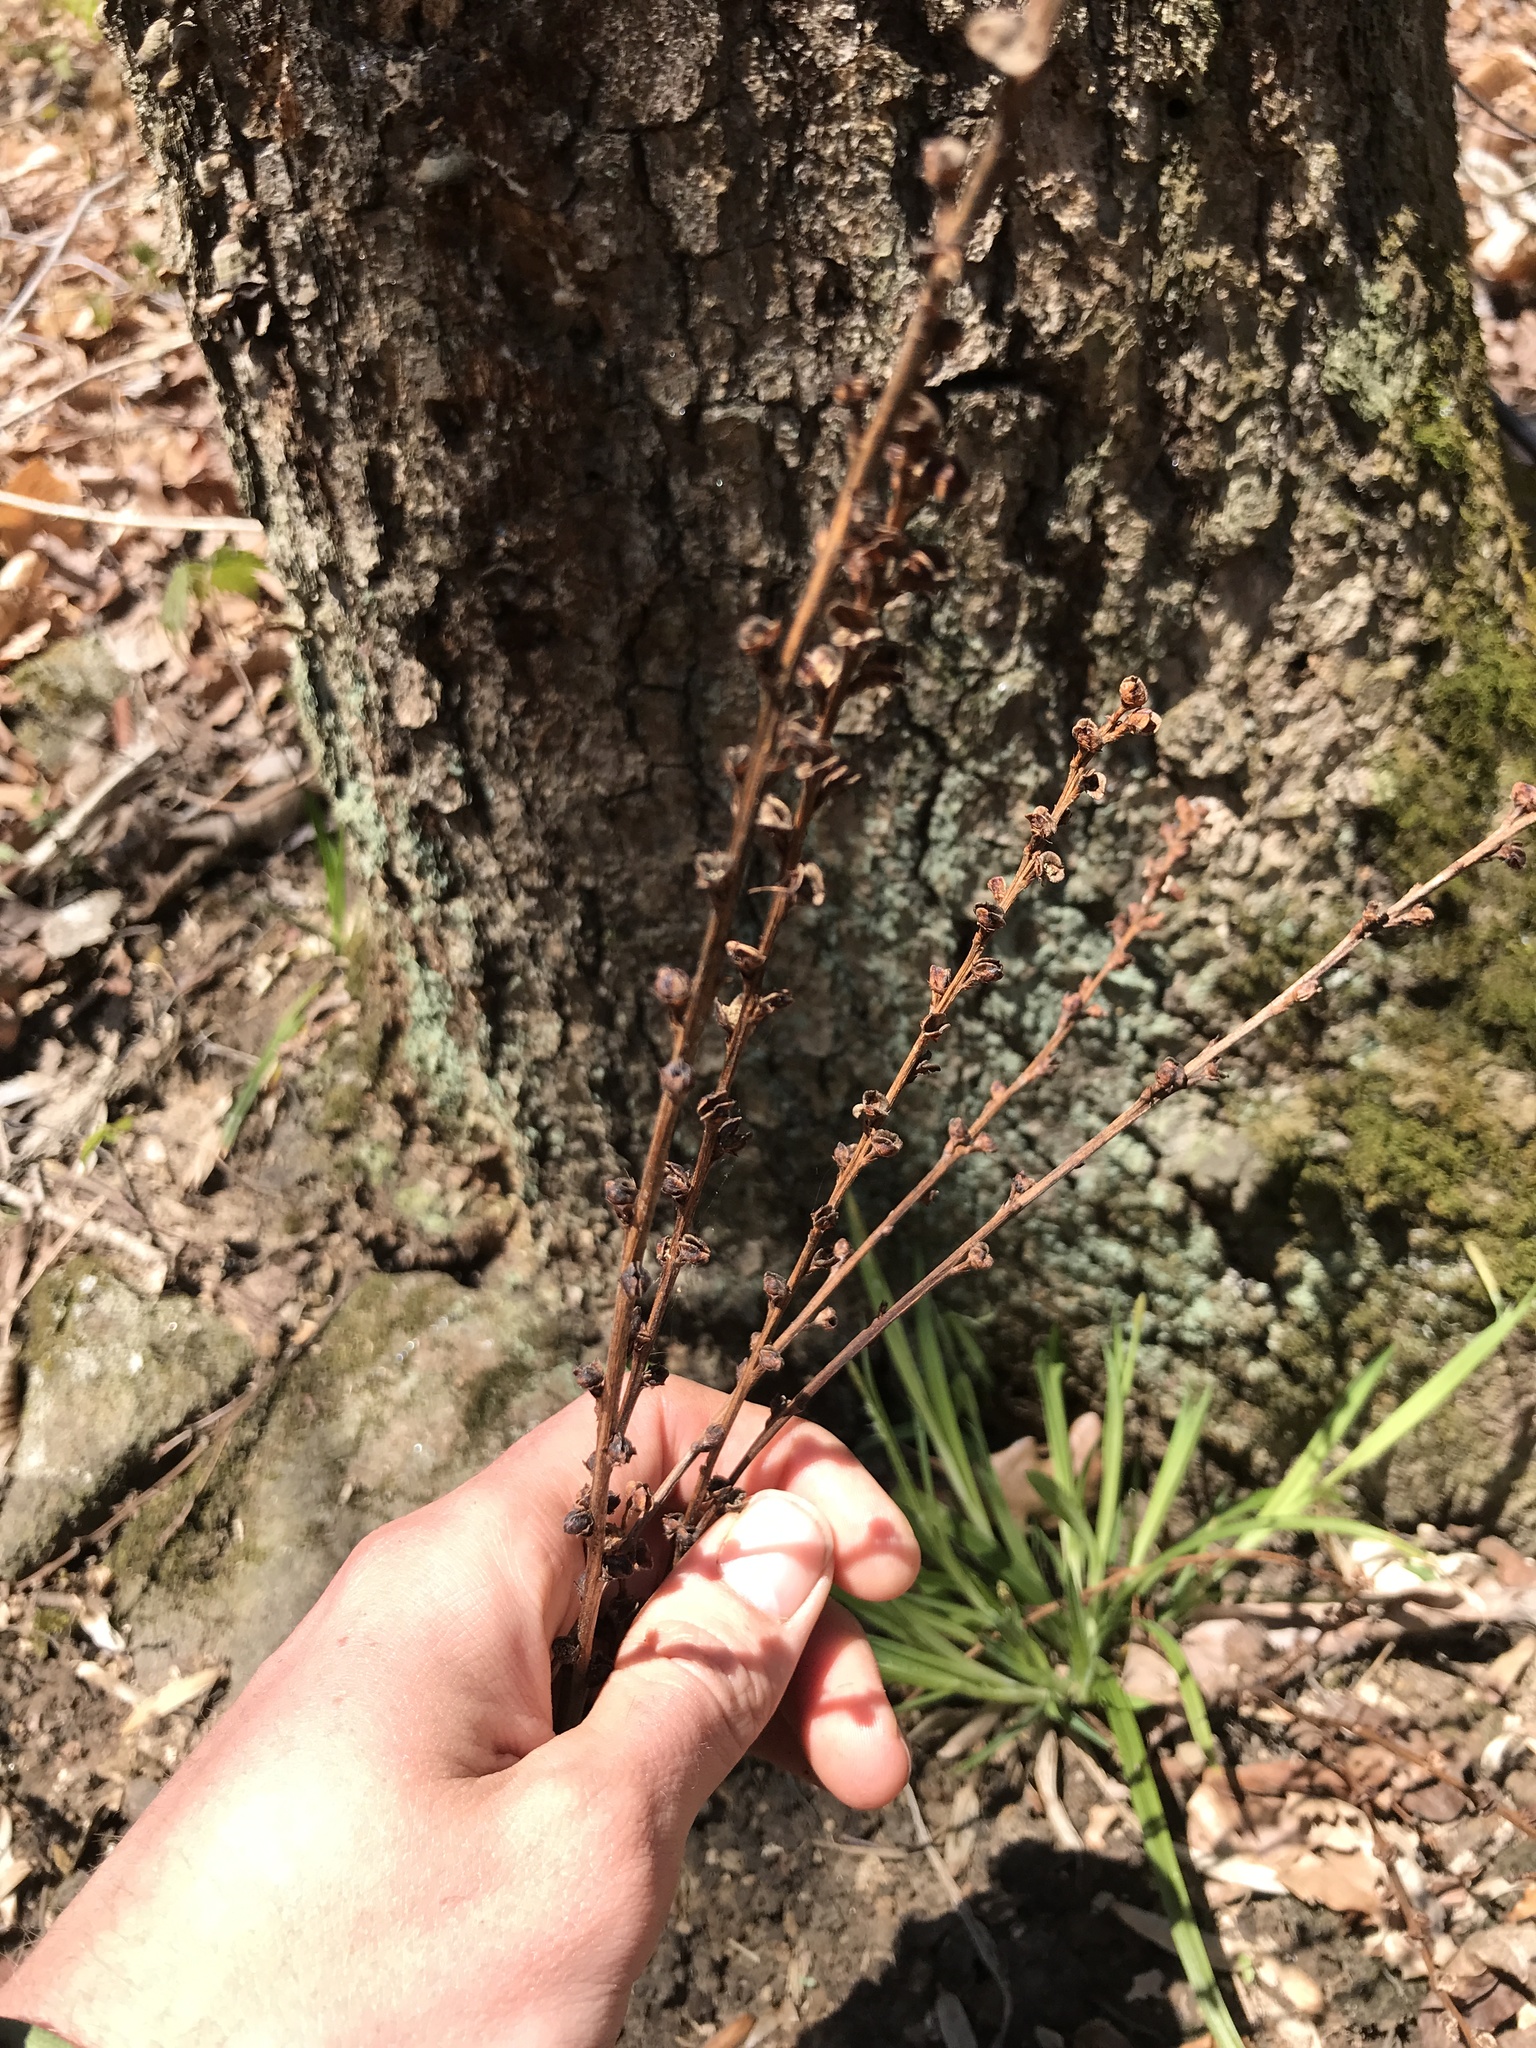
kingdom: Plantae
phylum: Tracheophyta
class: Magnoliopsida
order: Lamiales
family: Orobanchaceae
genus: Epifagus
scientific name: Epifagus virginiana
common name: Beechdrops
